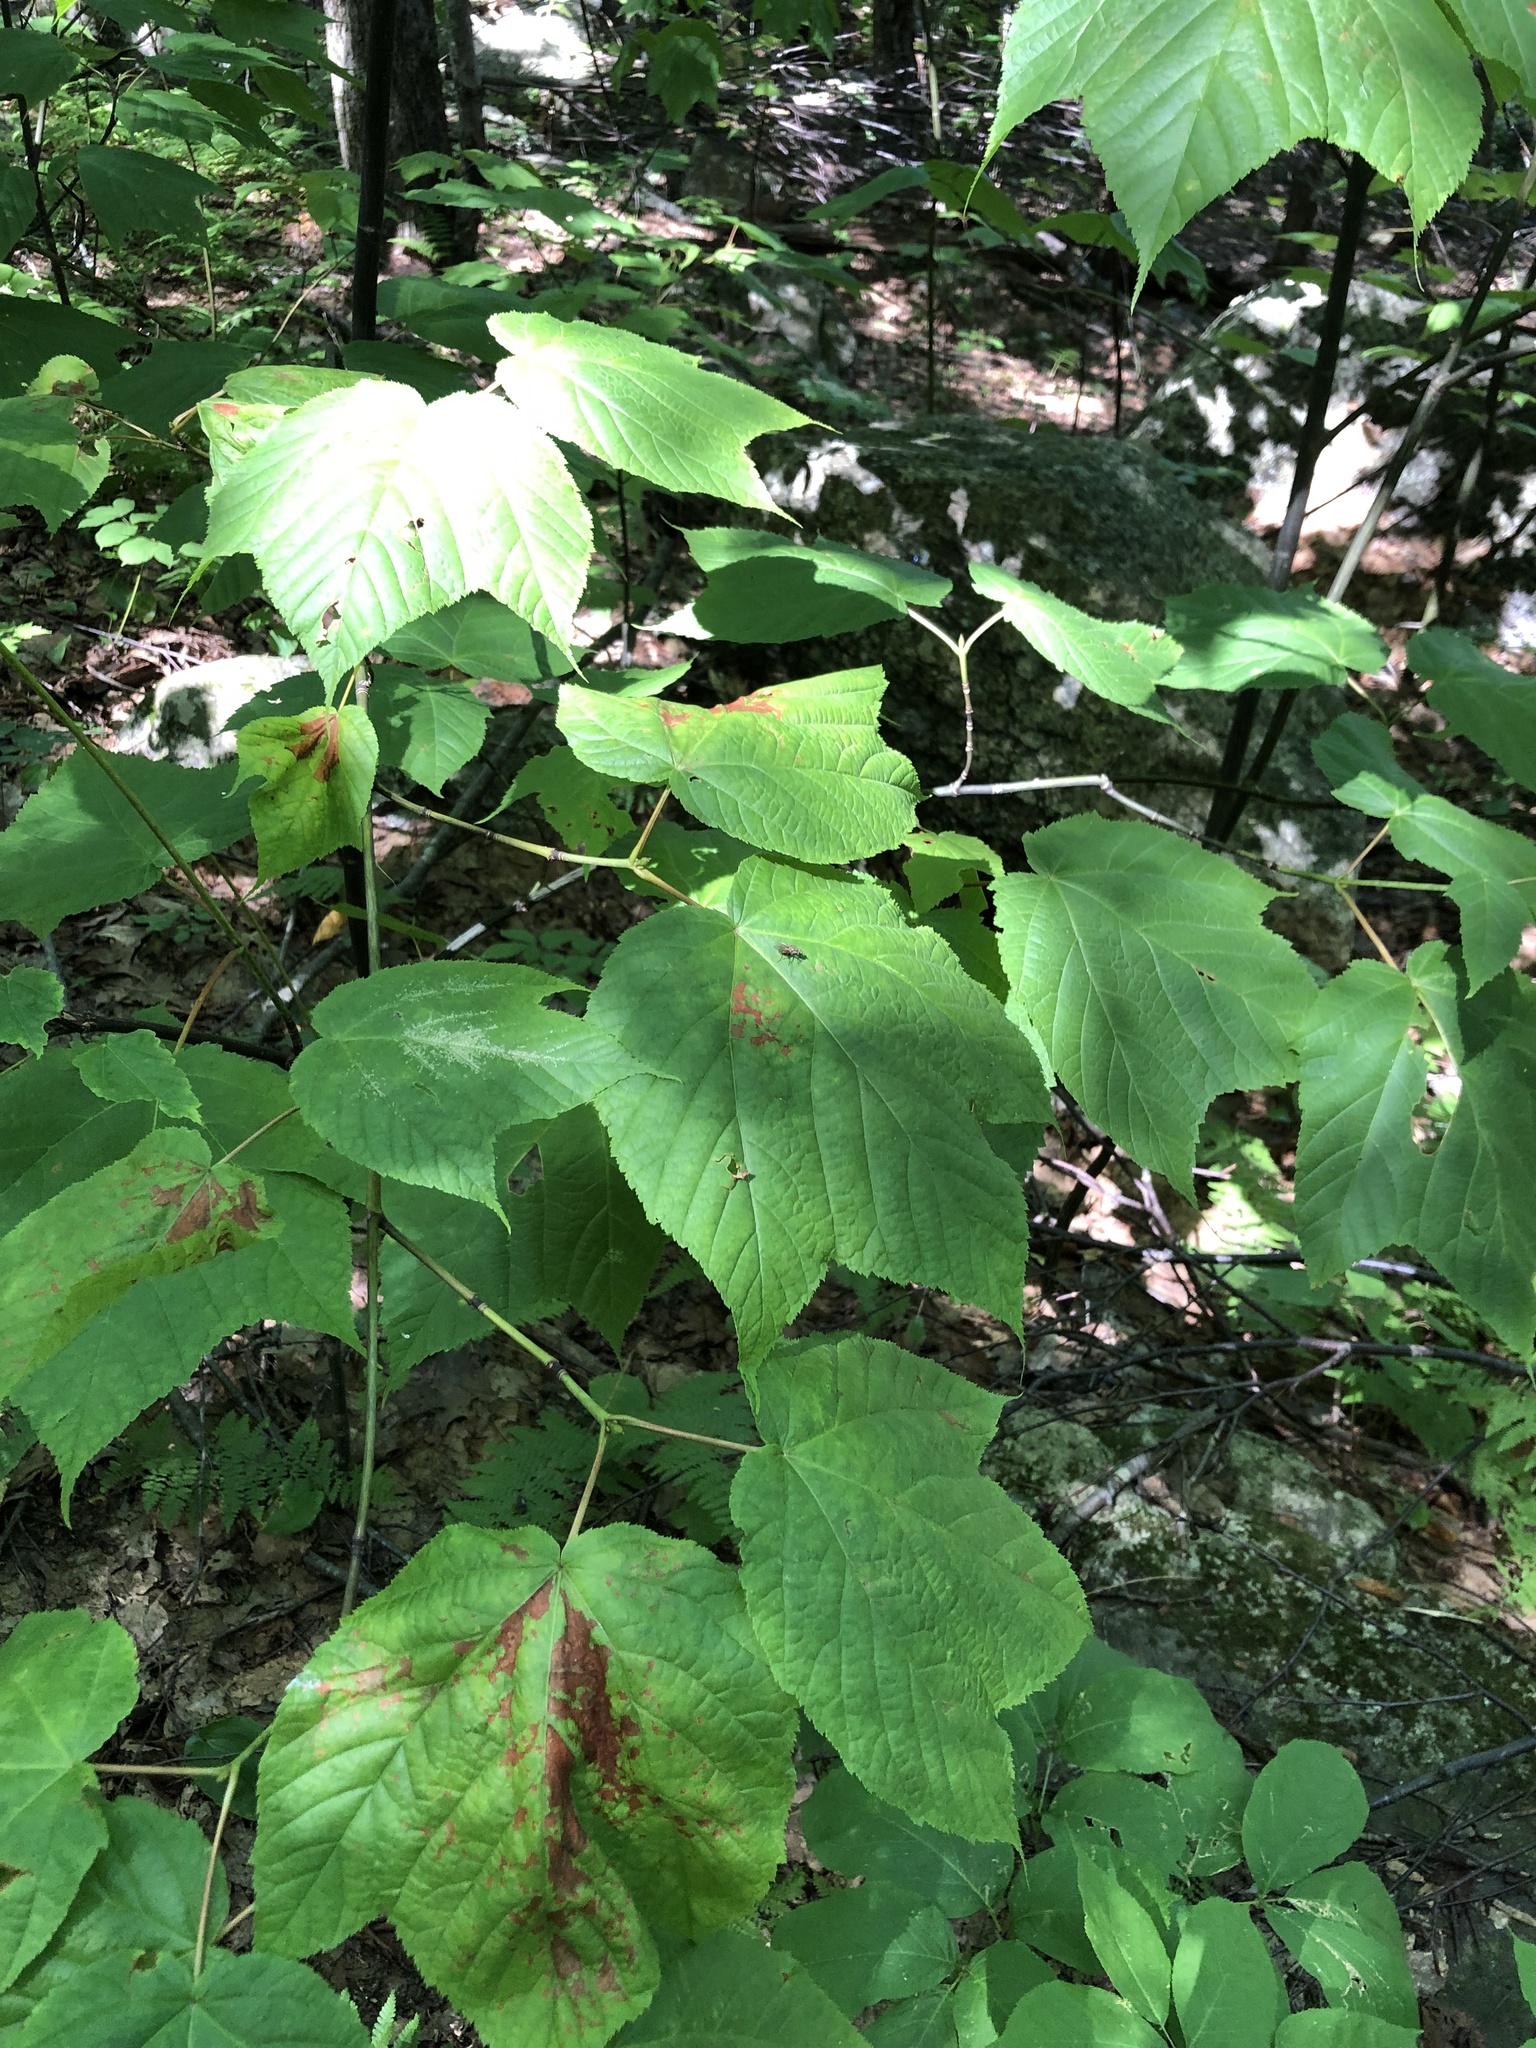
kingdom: Plantae
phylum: Tracheophyta
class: Magnoliopsida
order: Sapindales
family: Sapindaceae
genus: Acer
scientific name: Acer pensylvanicum
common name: Moosewood
